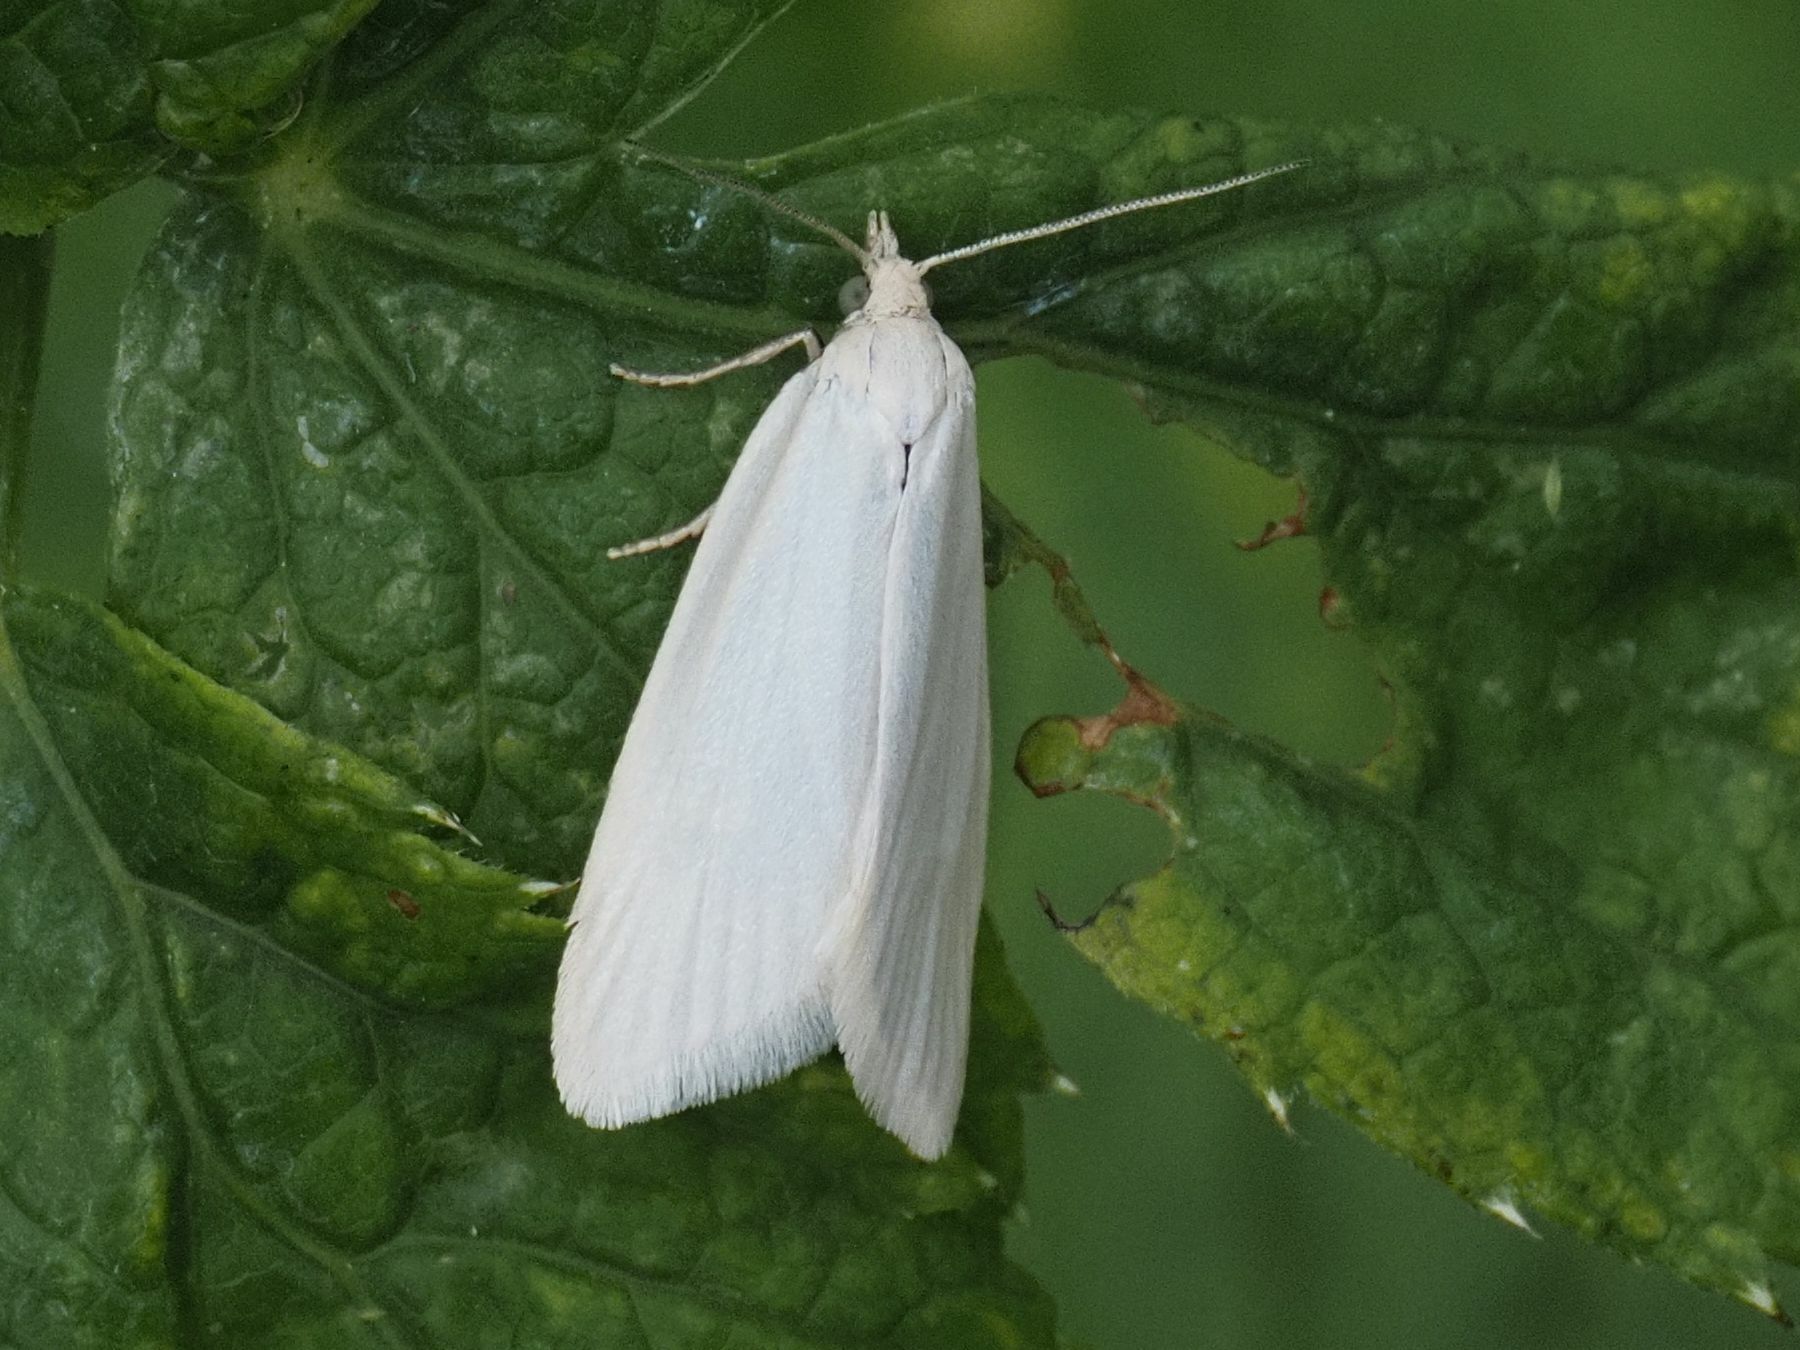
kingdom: Animalia
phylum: Arthropoda
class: Insecta
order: Lepidoptera
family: Tortricidae
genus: Eana
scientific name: Eana argentana
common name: Silver shade
